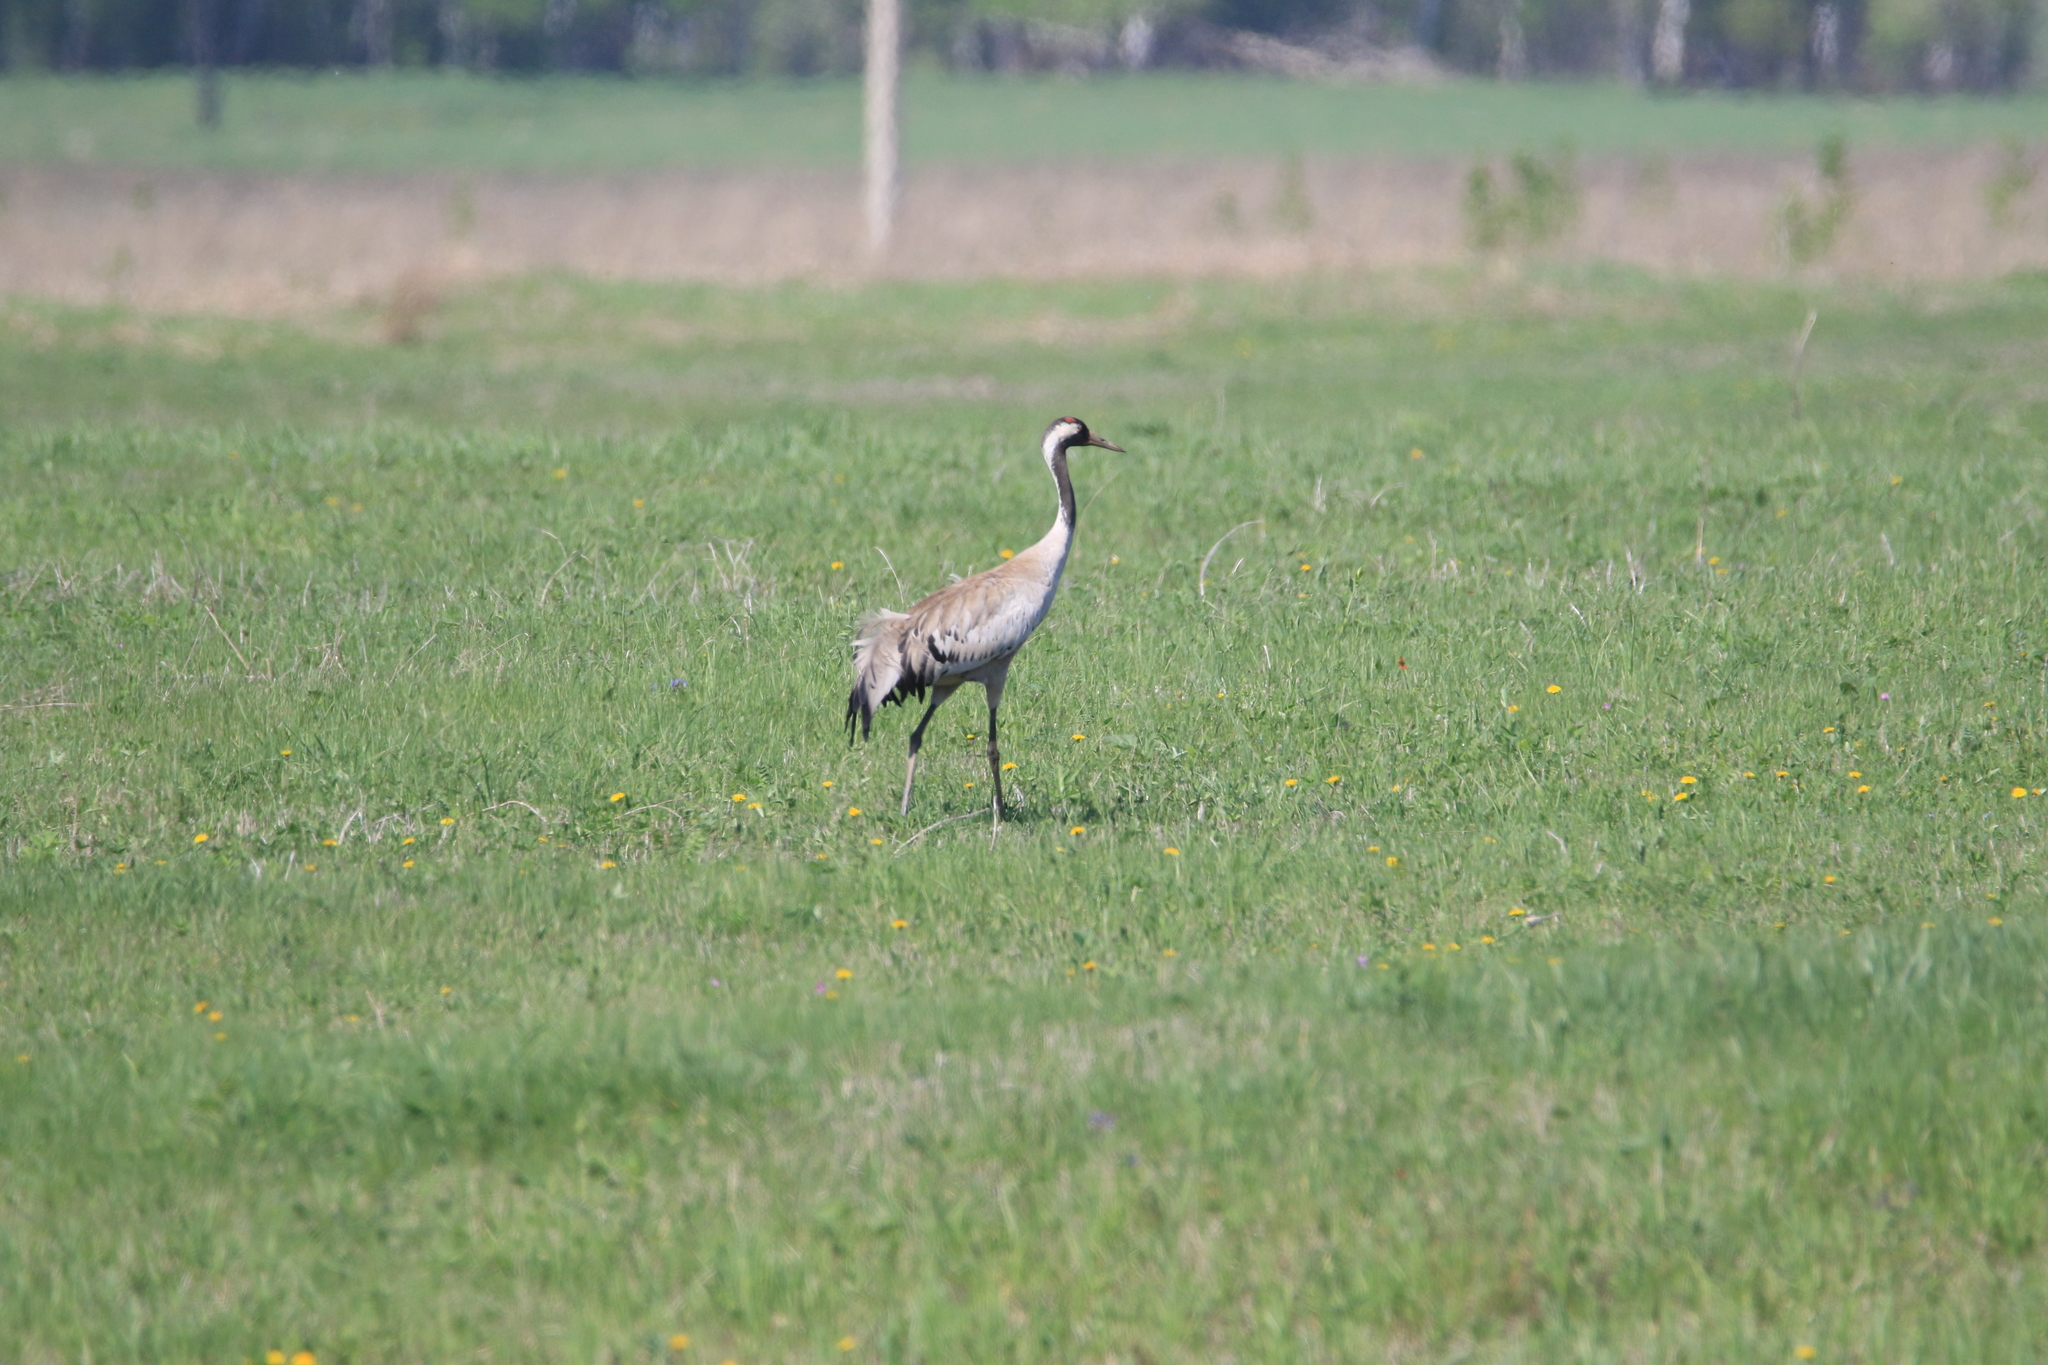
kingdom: Animalia
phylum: Chordata
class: Aves
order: Gruiformes
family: Gruidae
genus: Grus
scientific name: Grus grus
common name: Common crane
